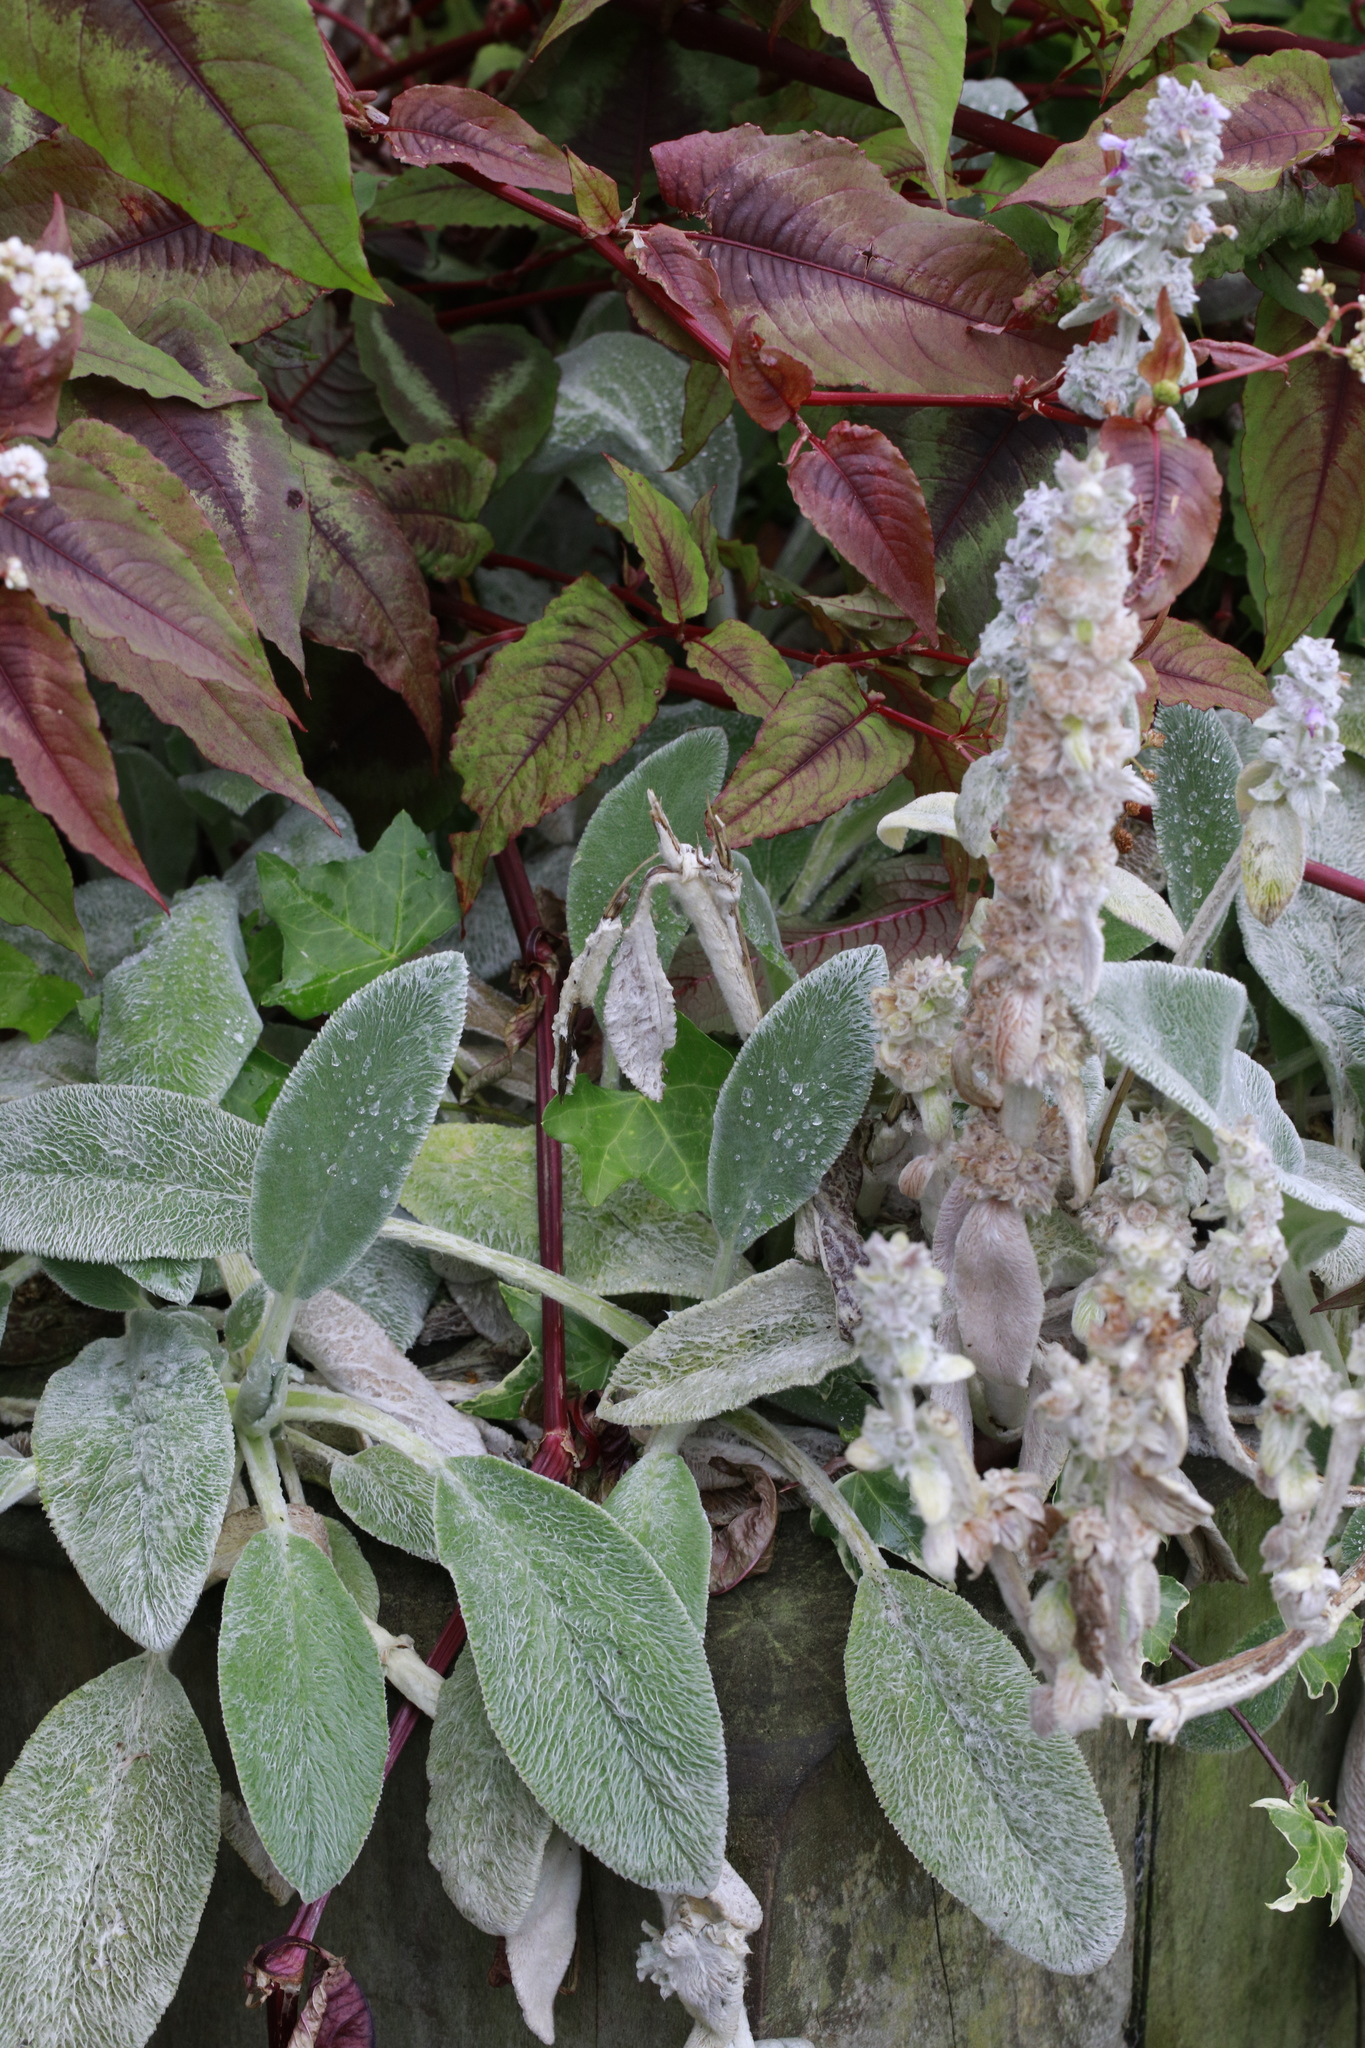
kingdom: Plantae
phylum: Tracheophyta
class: Magnoliopsida
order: Lamiales
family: Lamiaceae
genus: Stachys
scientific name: Stachys byzantina
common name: Lamb's-ear
